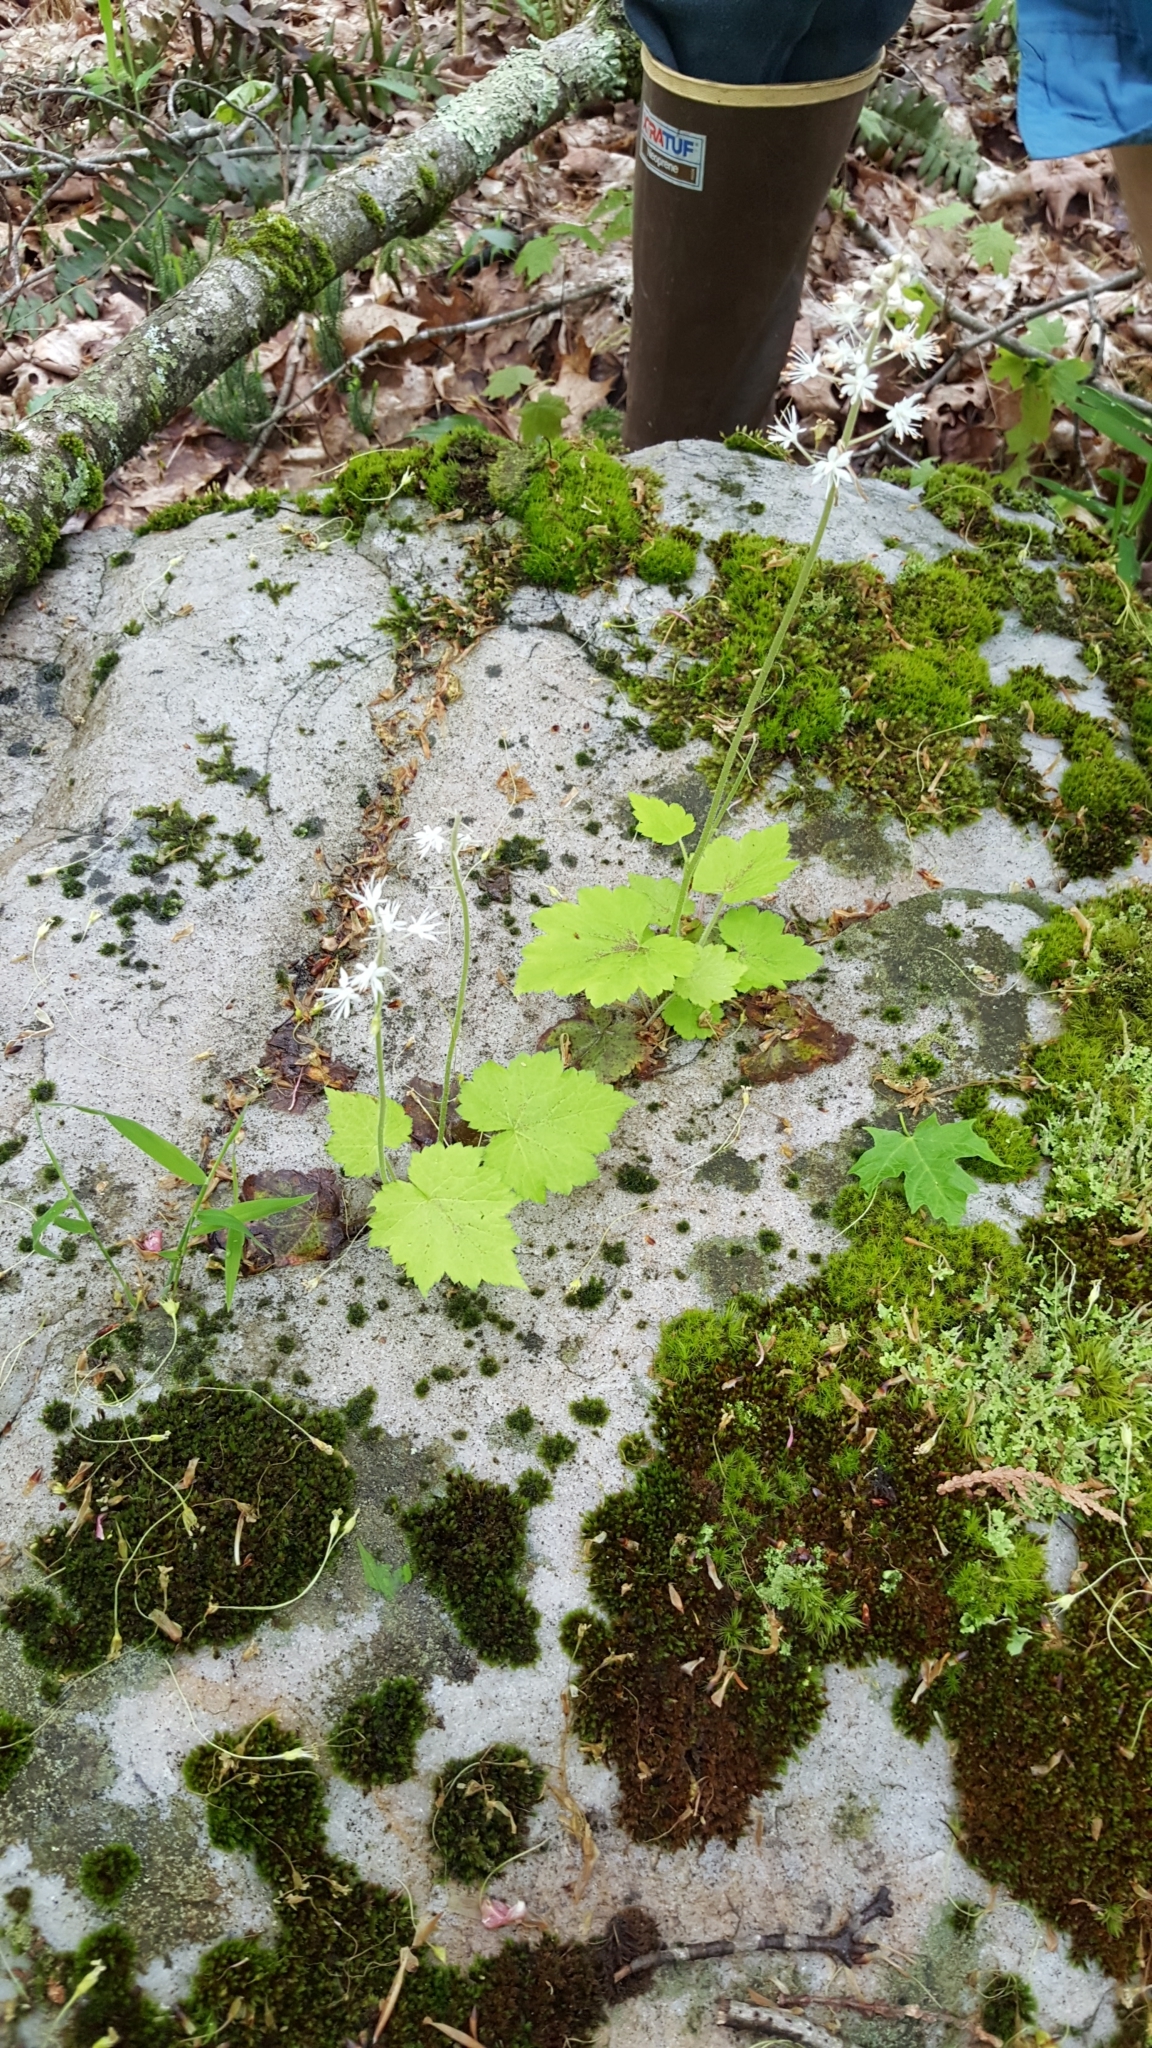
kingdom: Plantae
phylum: Tracheophyta
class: Magnoliopsida
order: Saxifragales
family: Saxifragaceae
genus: Tiarella
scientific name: Tiarella stolonifera
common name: Stoloniferous foamflower
